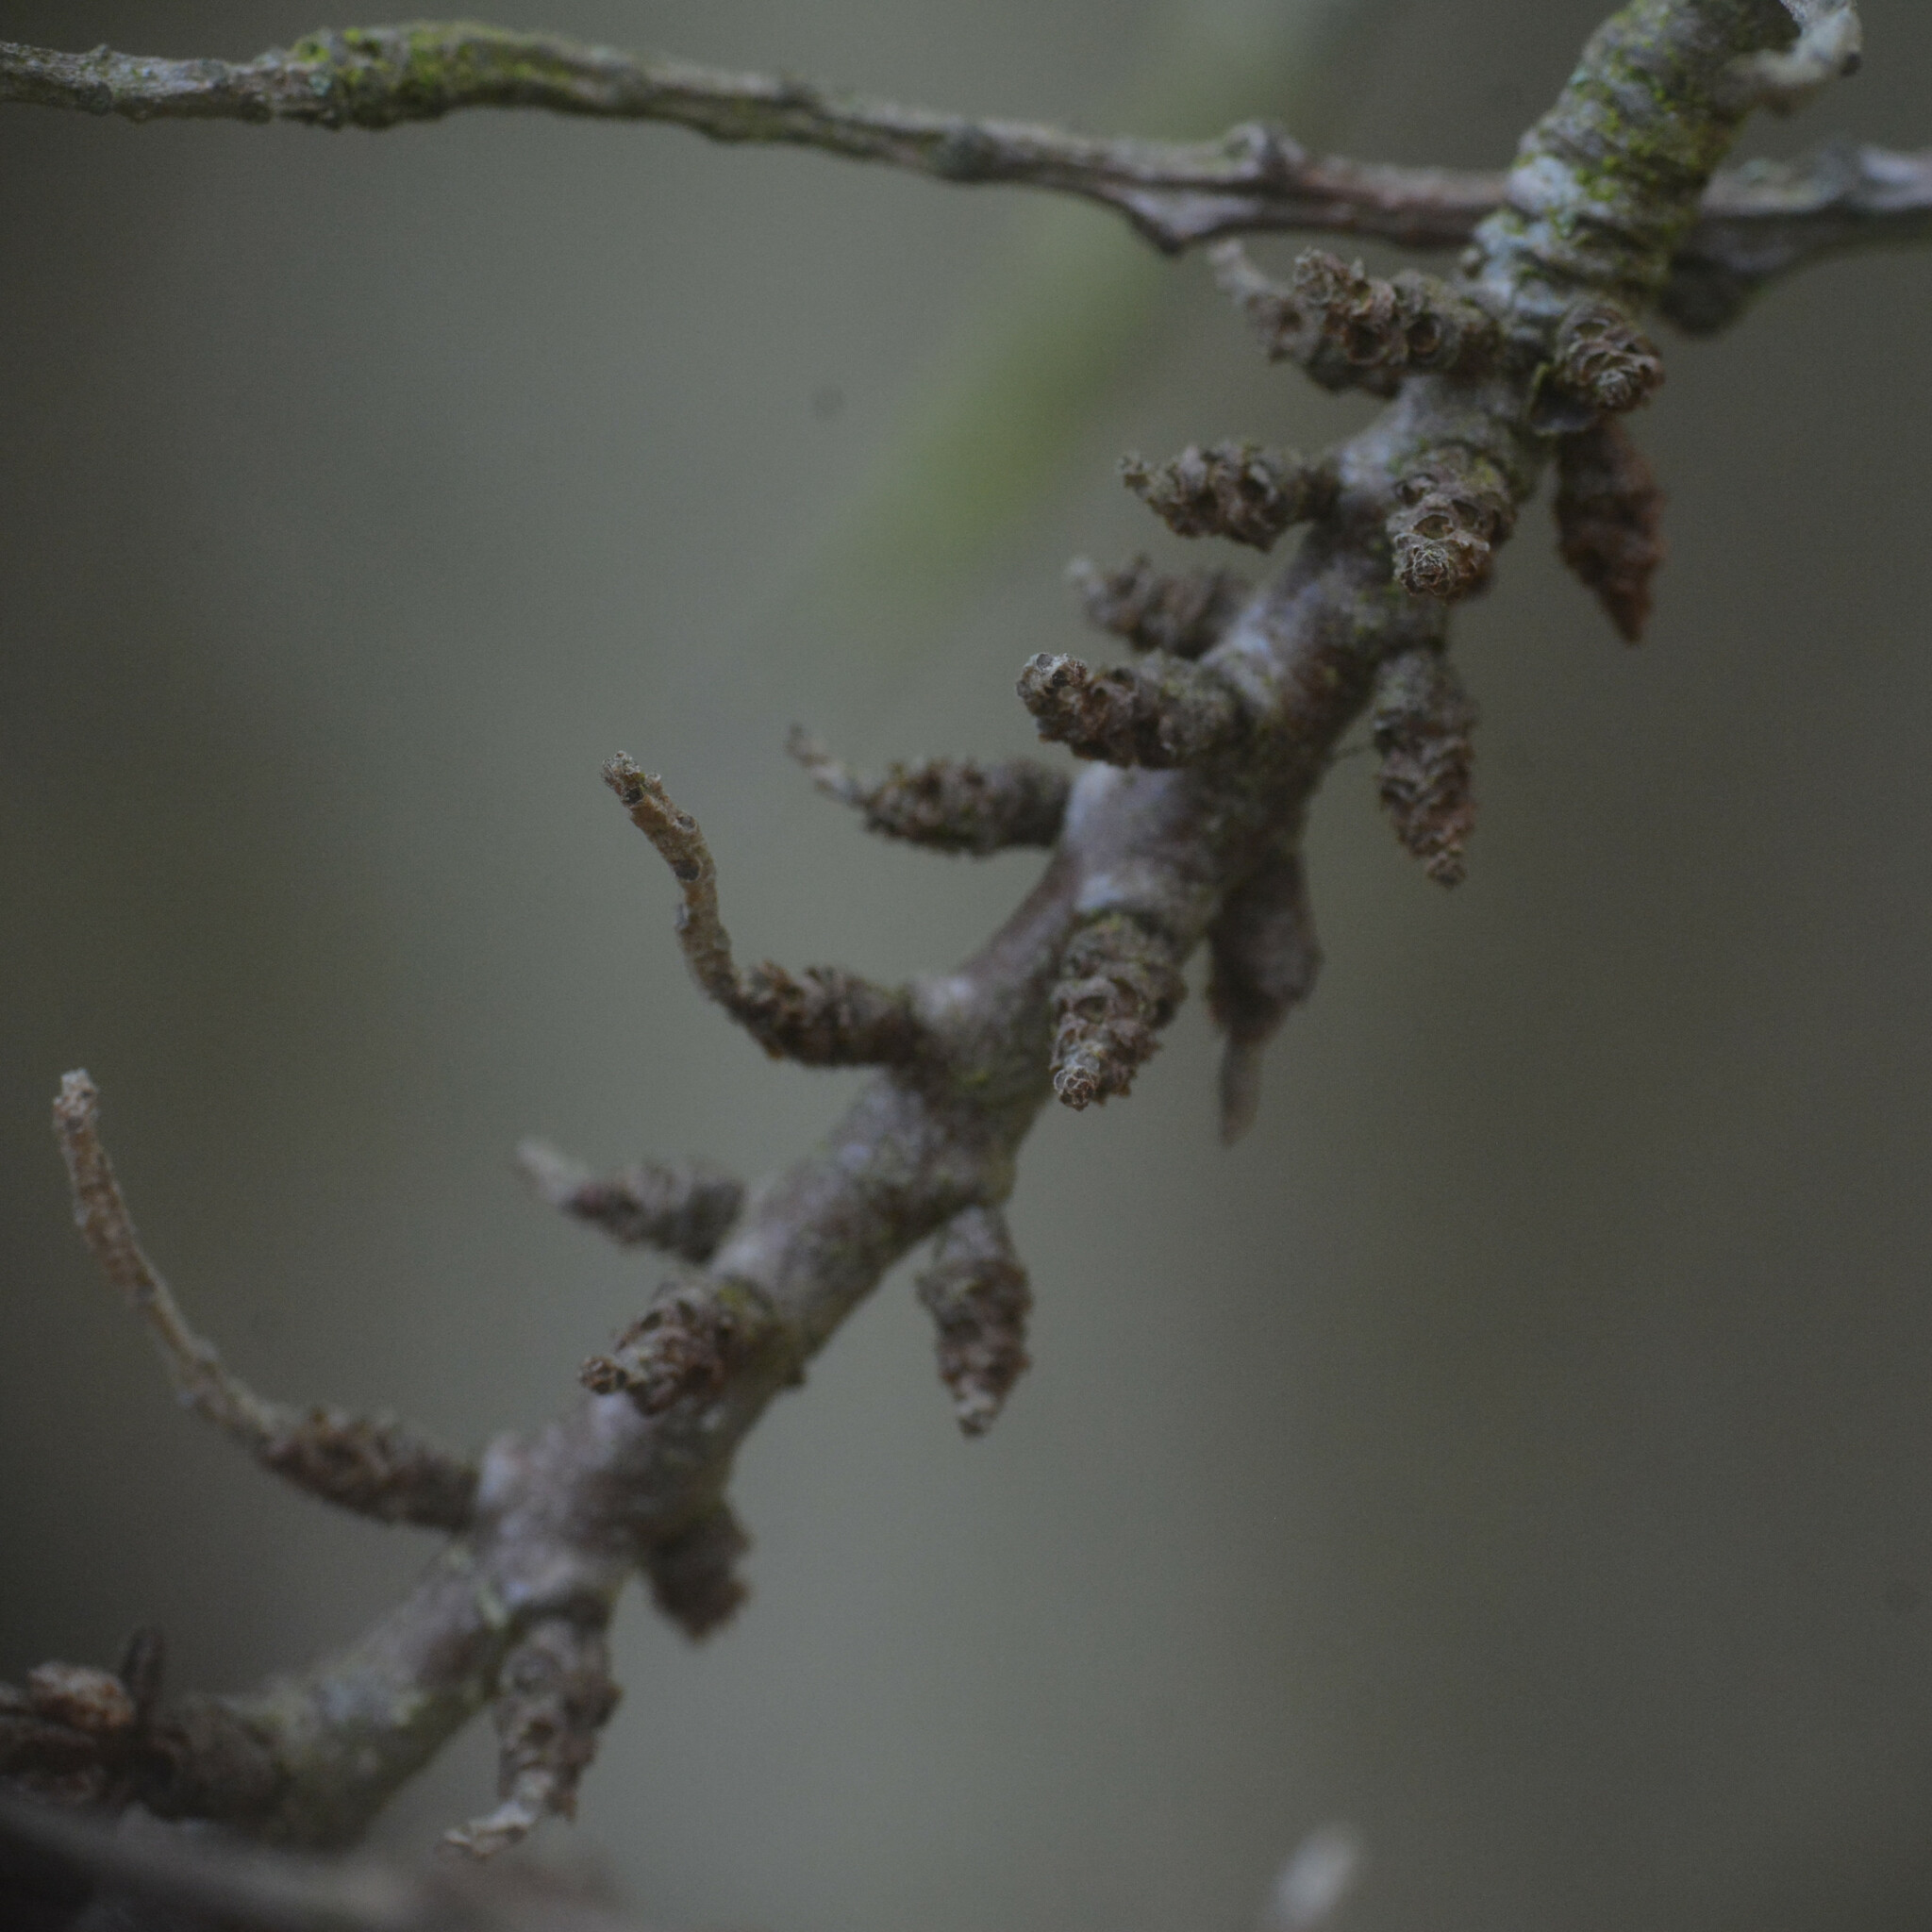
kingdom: Plantae
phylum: Tracheophyta
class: Magnoliopsida
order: Rosales
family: Elaeagnaceae
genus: Hippophae
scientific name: Hippophae rhamnoides
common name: Sea-buckthorn
